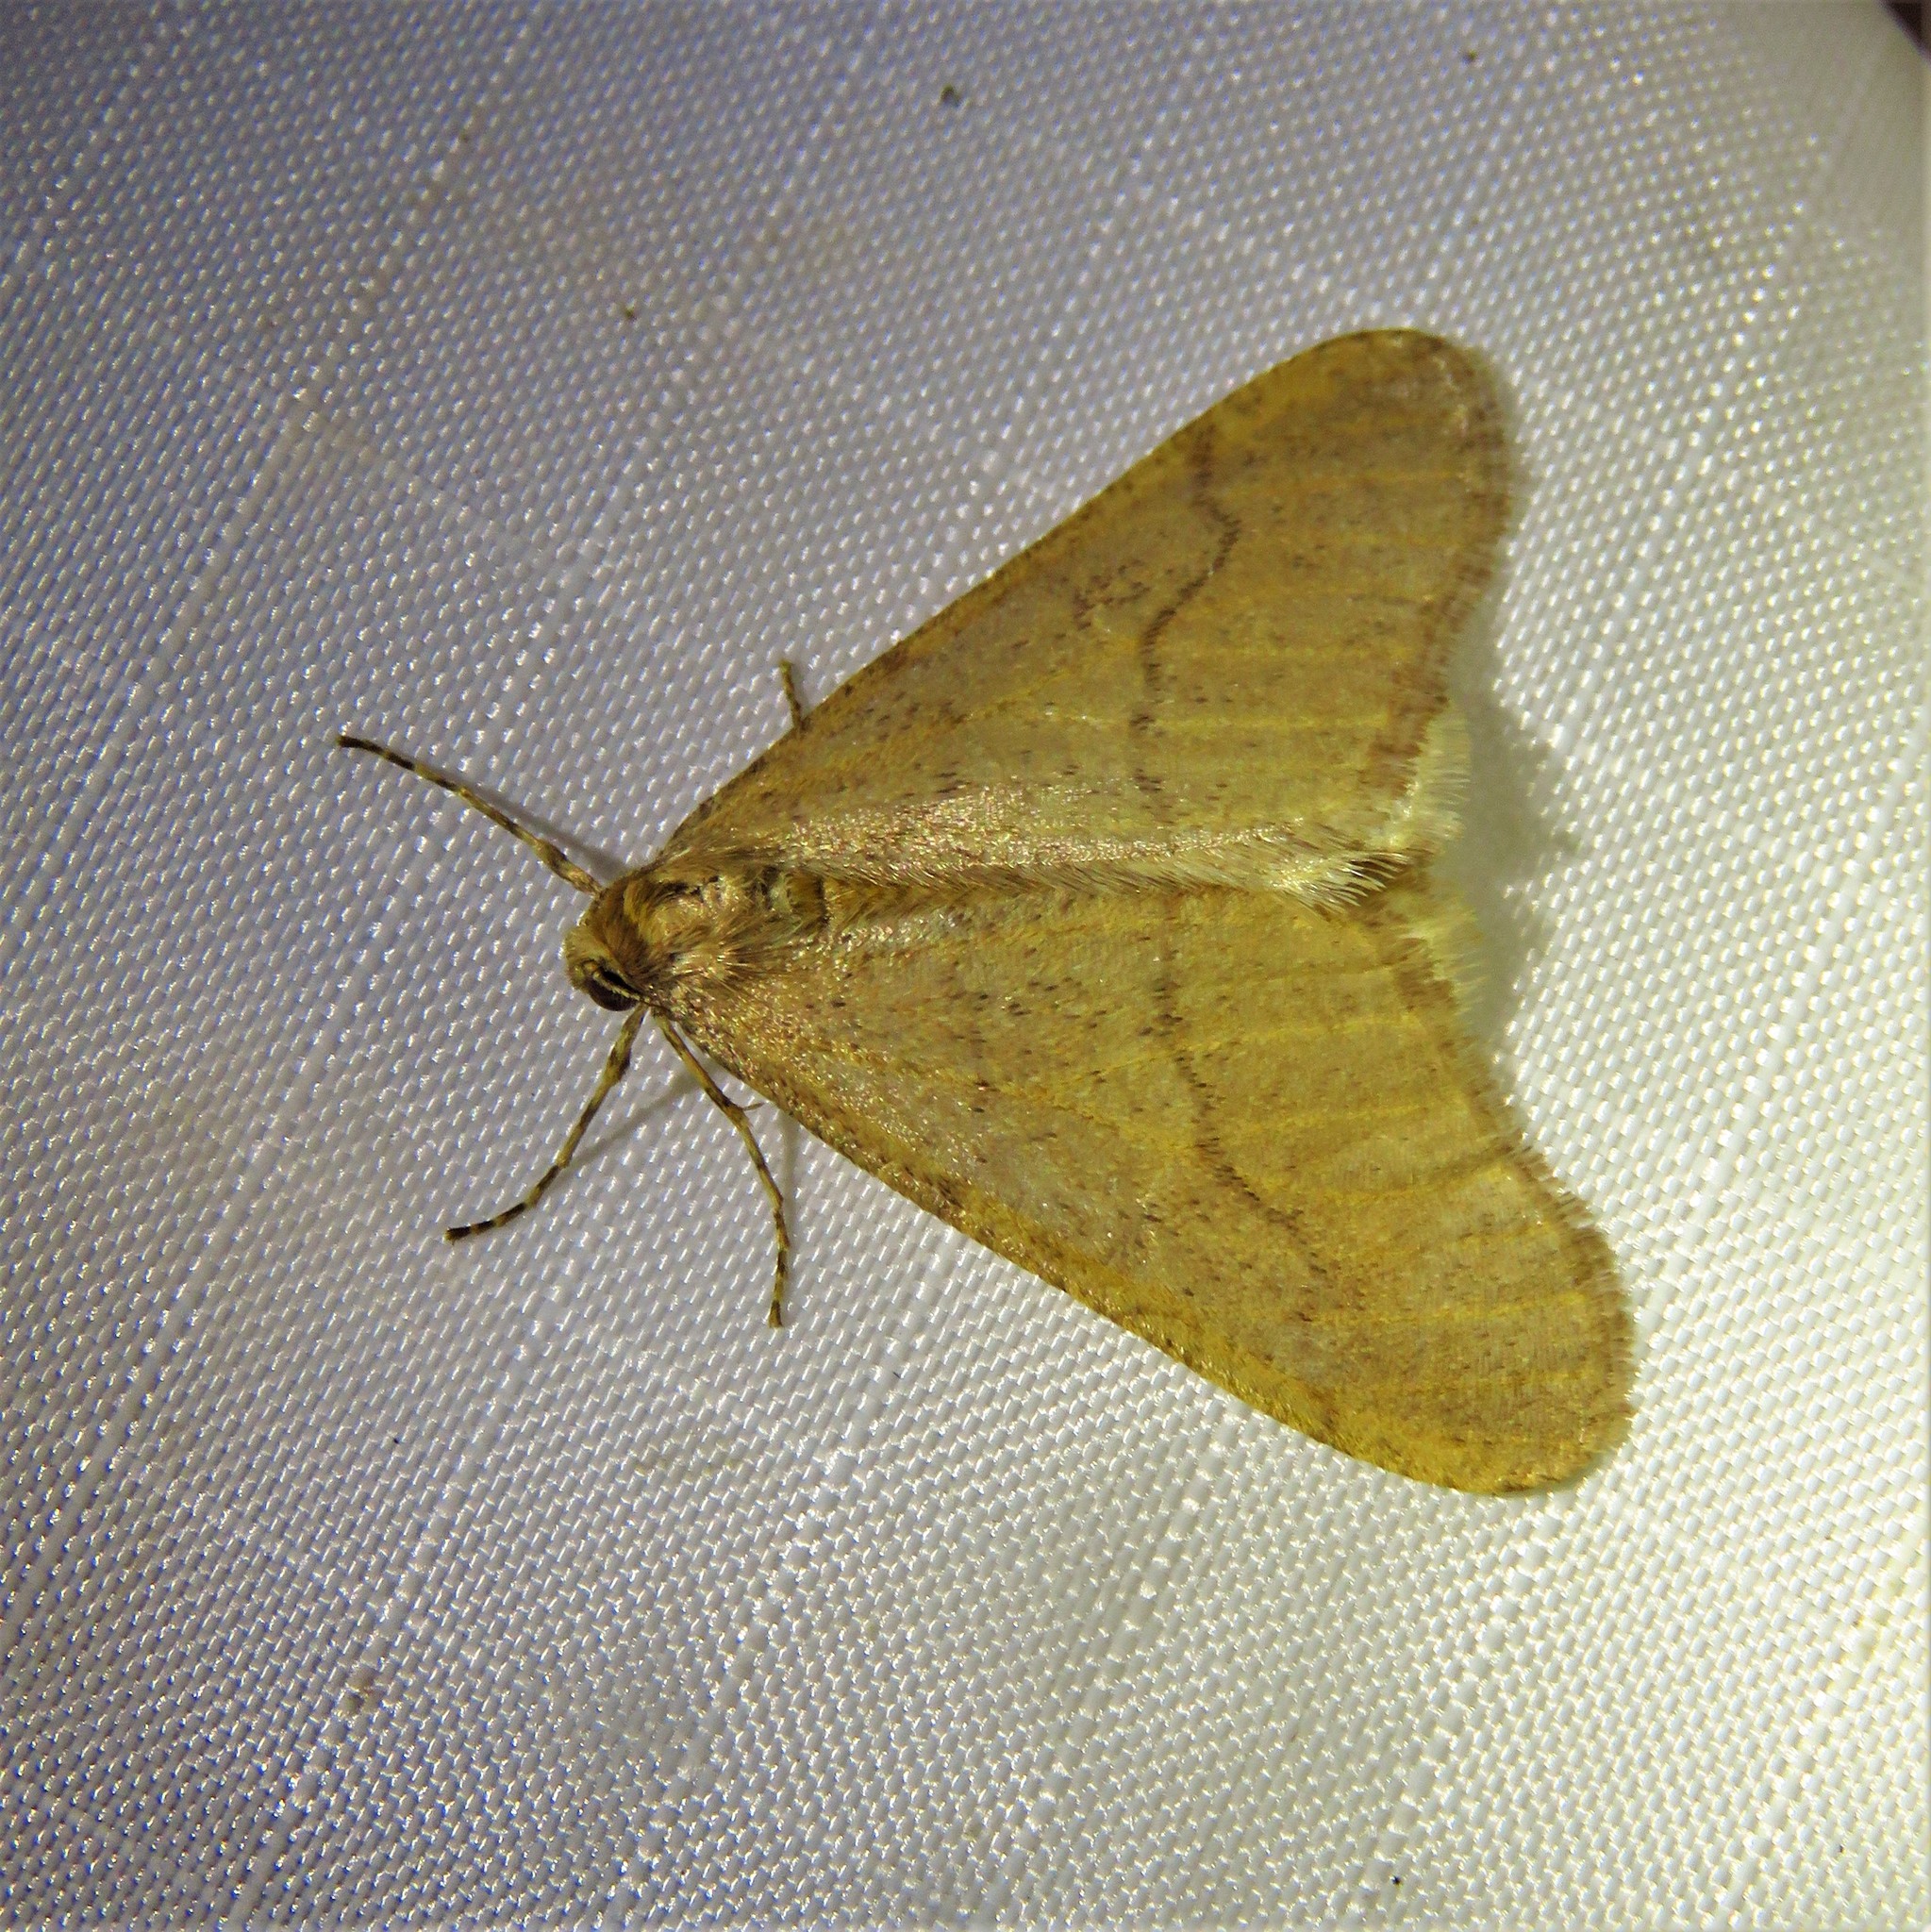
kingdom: Animalia
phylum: Arthropoda
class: Insecta
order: Lepidoptera
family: Geometridae
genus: Erannis
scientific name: Erannis tiliaria
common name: Linden looper
